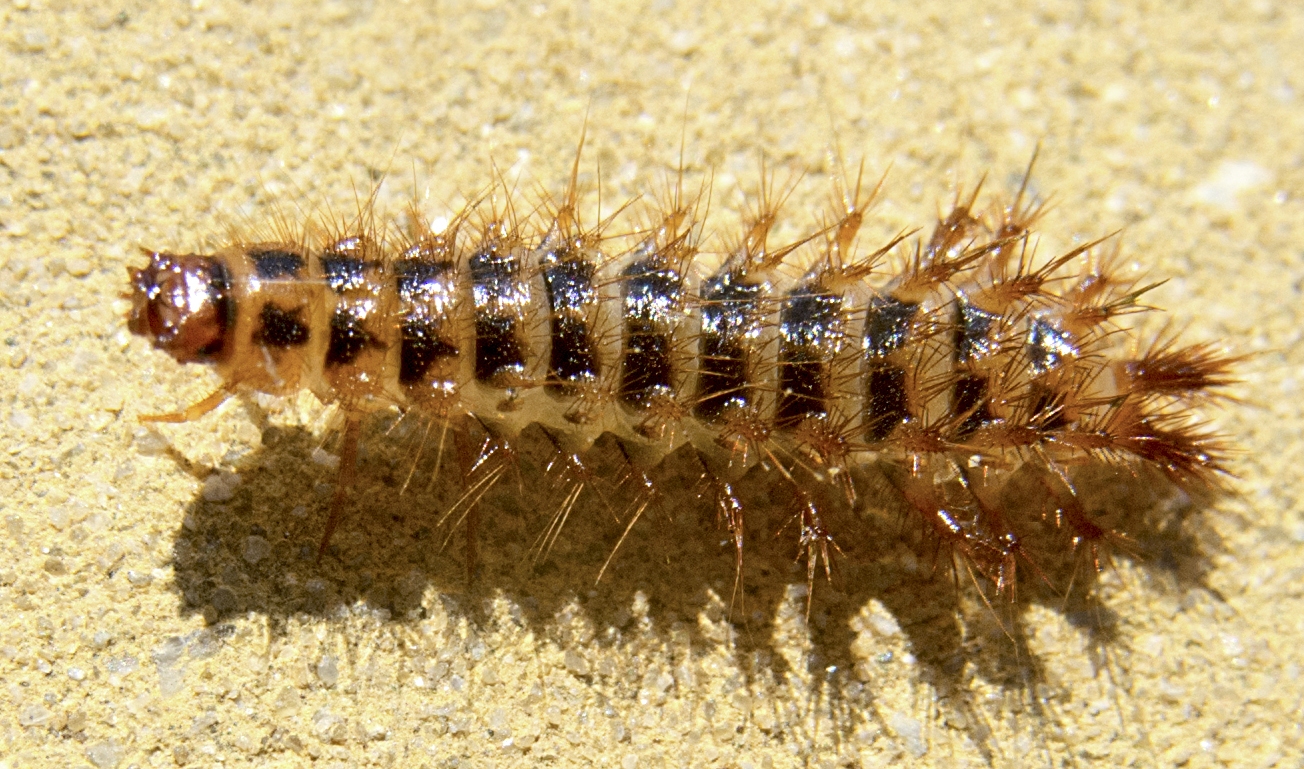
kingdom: Animalia
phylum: Arthropoda
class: Insecta
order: Coleoptera
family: Drilidae
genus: Drilus
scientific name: Drilus concolor
